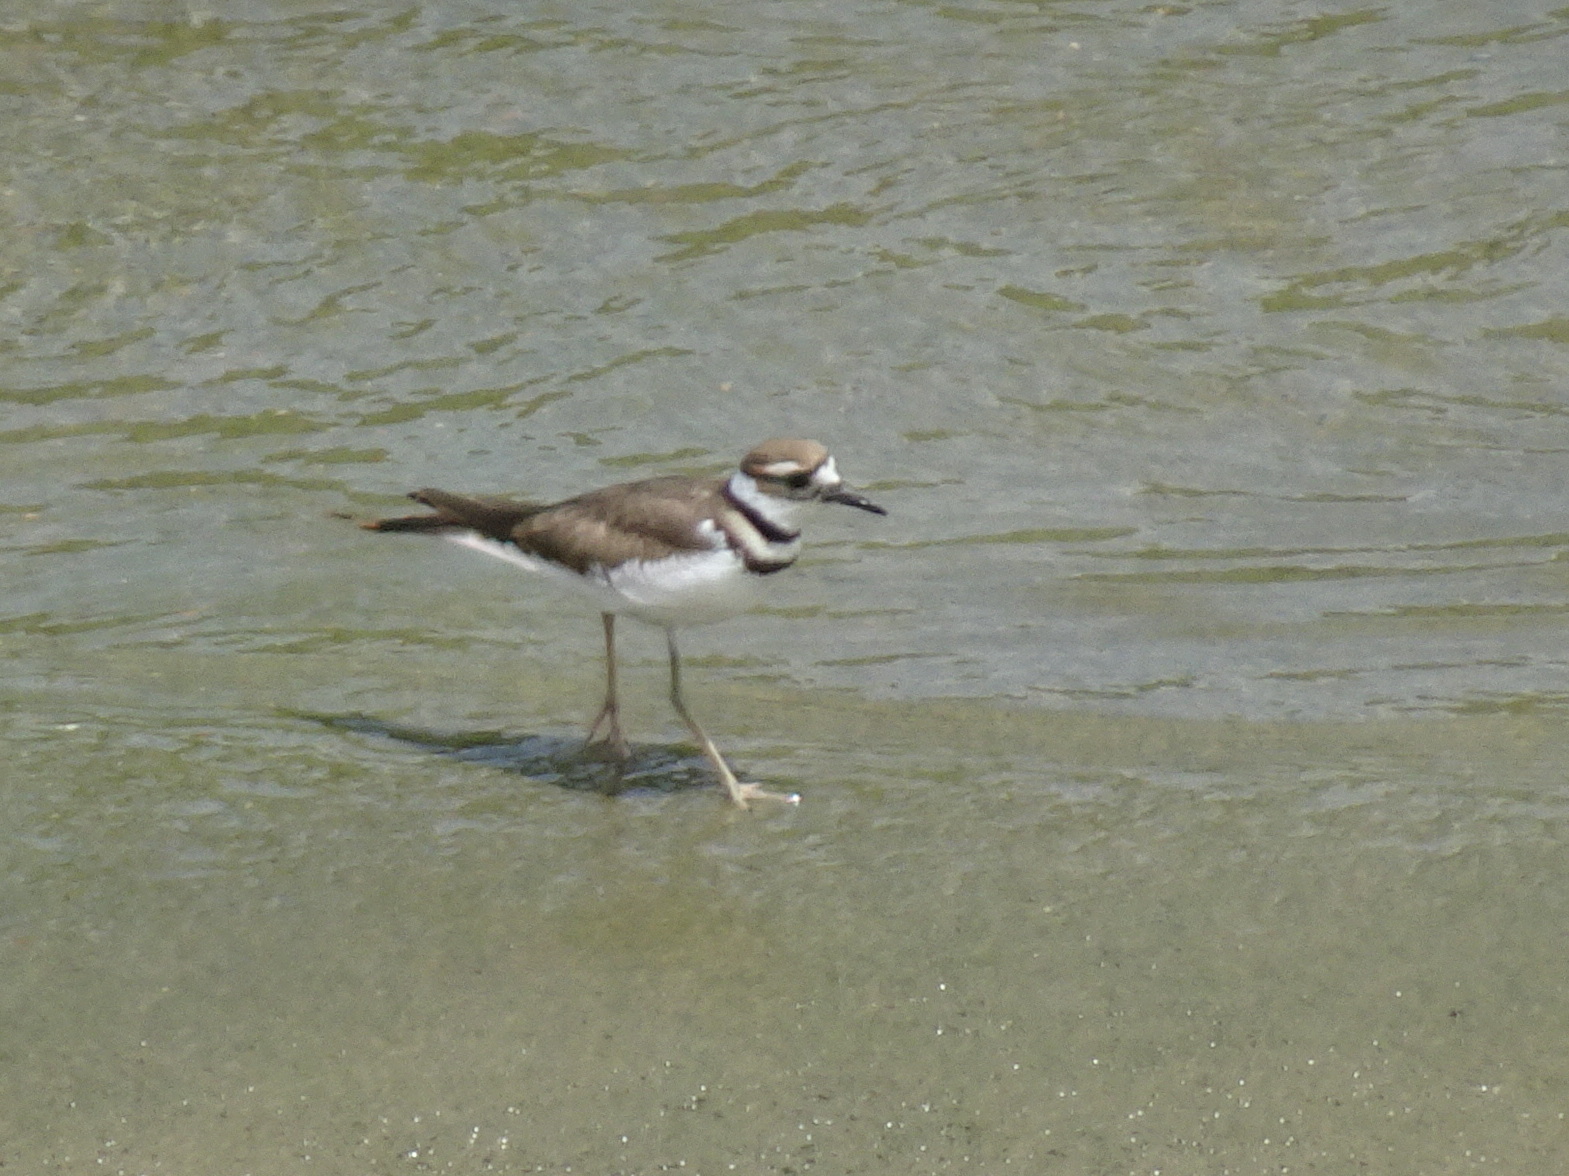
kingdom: Animalia
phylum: Chordata
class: Aves
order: Charadriiformes
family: Charadriidae
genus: Charadrius
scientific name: Charadrius vociferus
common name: Killdeer
